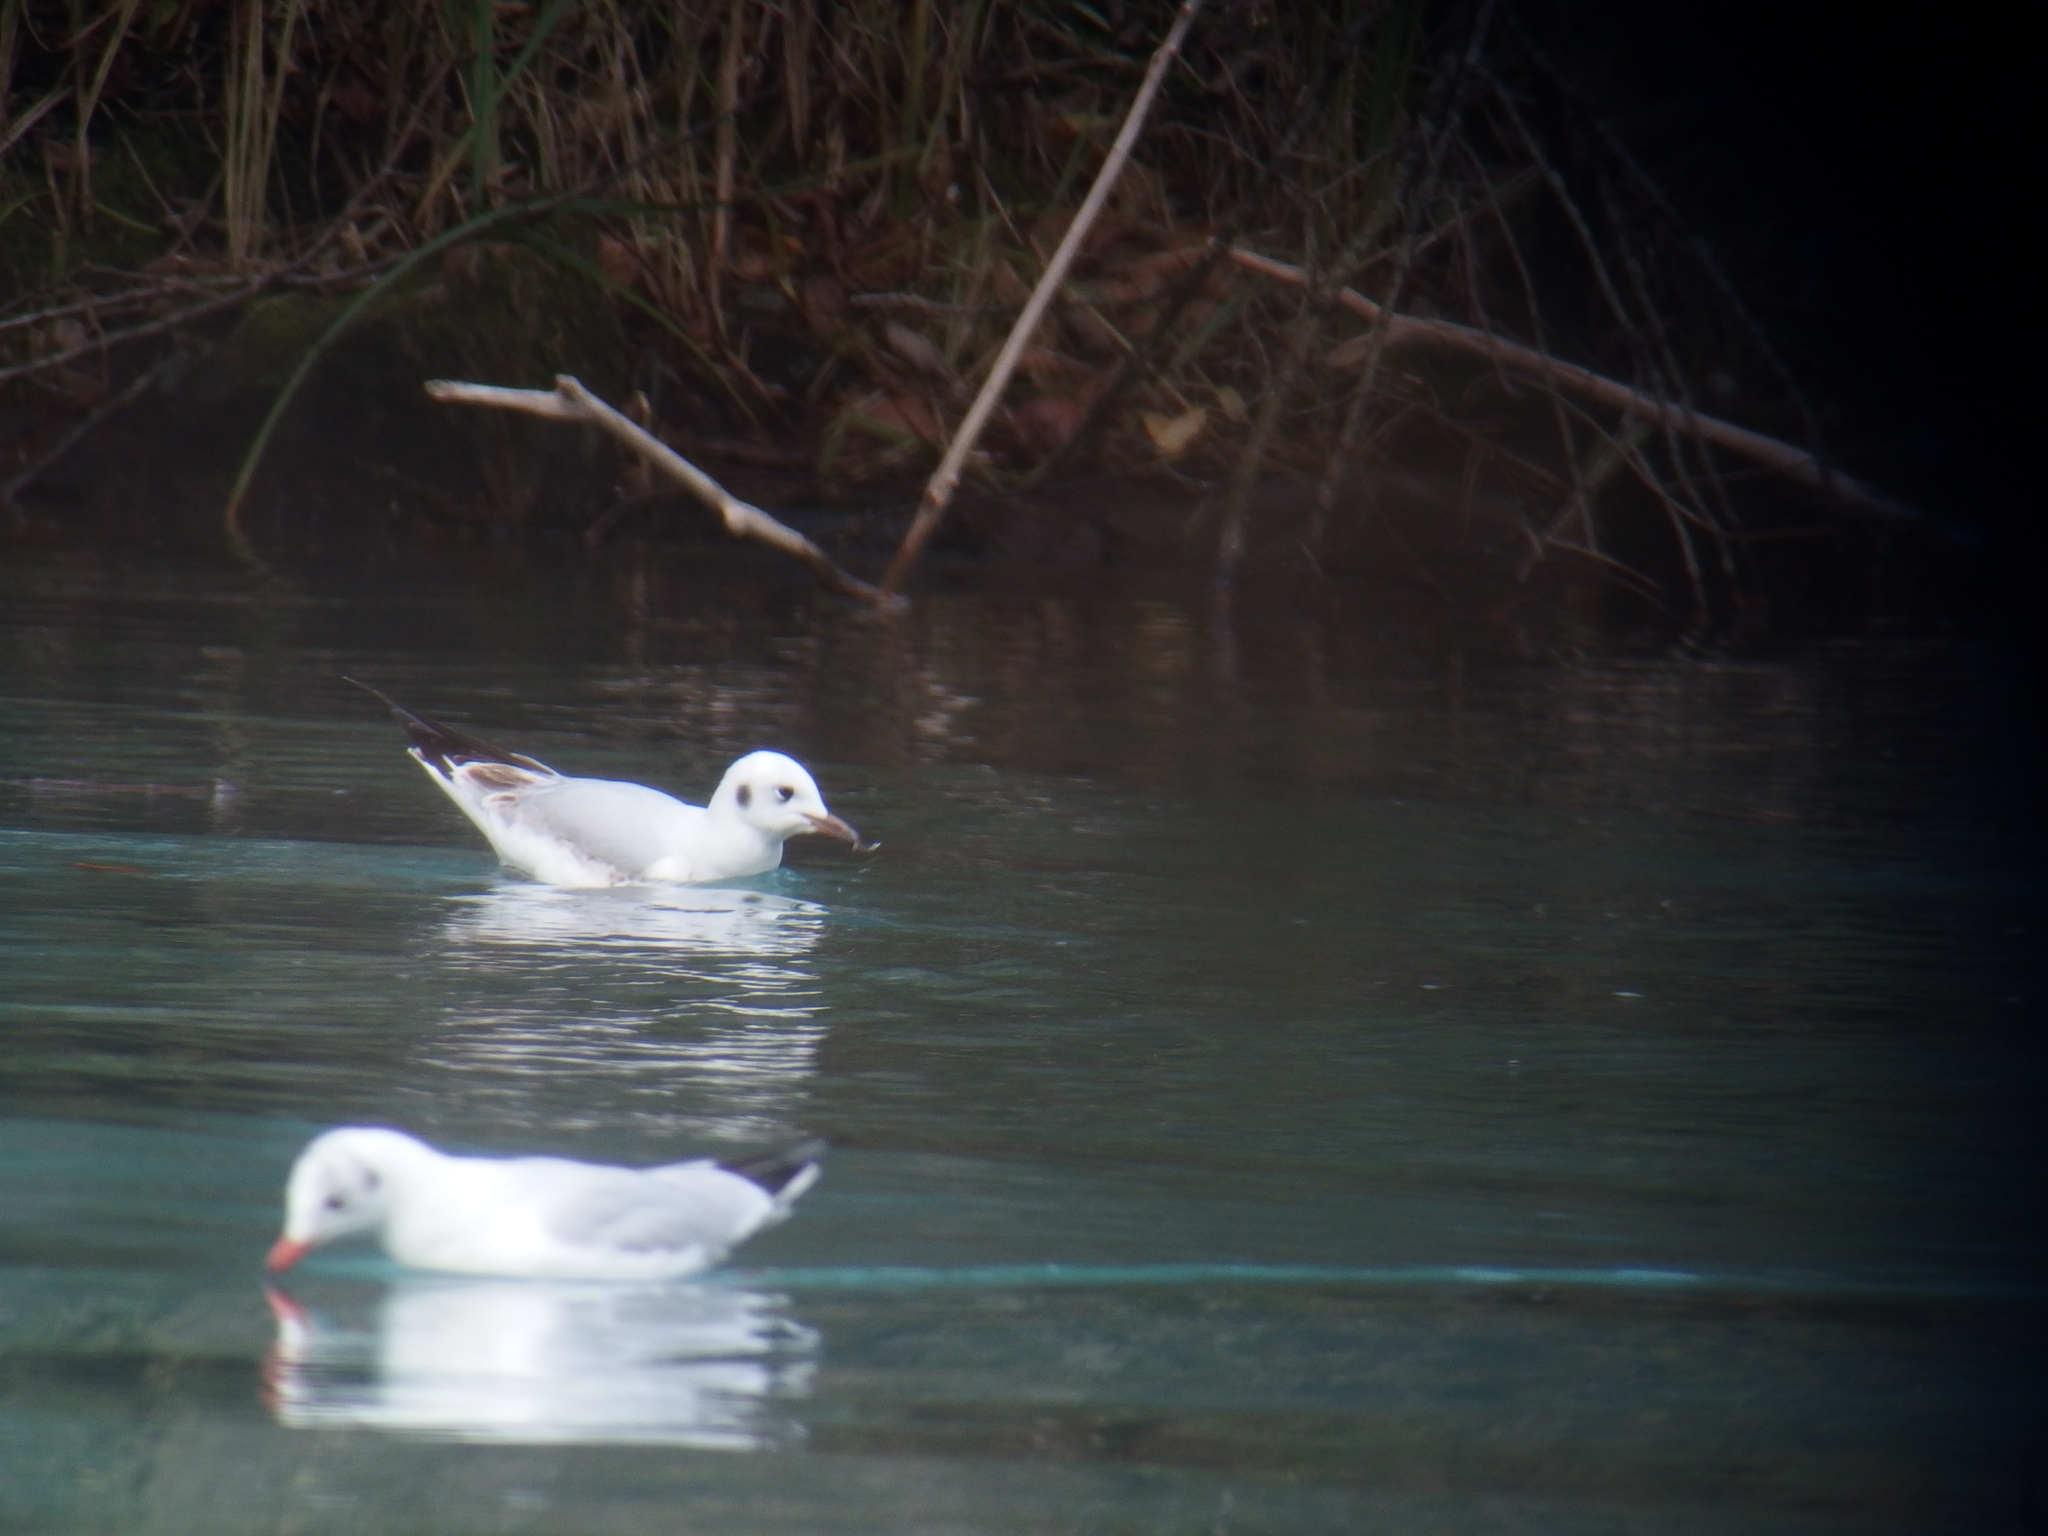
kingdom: Animalia
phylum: Chordata
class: Aves
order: Charadriiformes
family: Laridae
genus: Chroicocephalus
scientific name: Chroicocephalus ridibundus
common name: Black-headed gull
